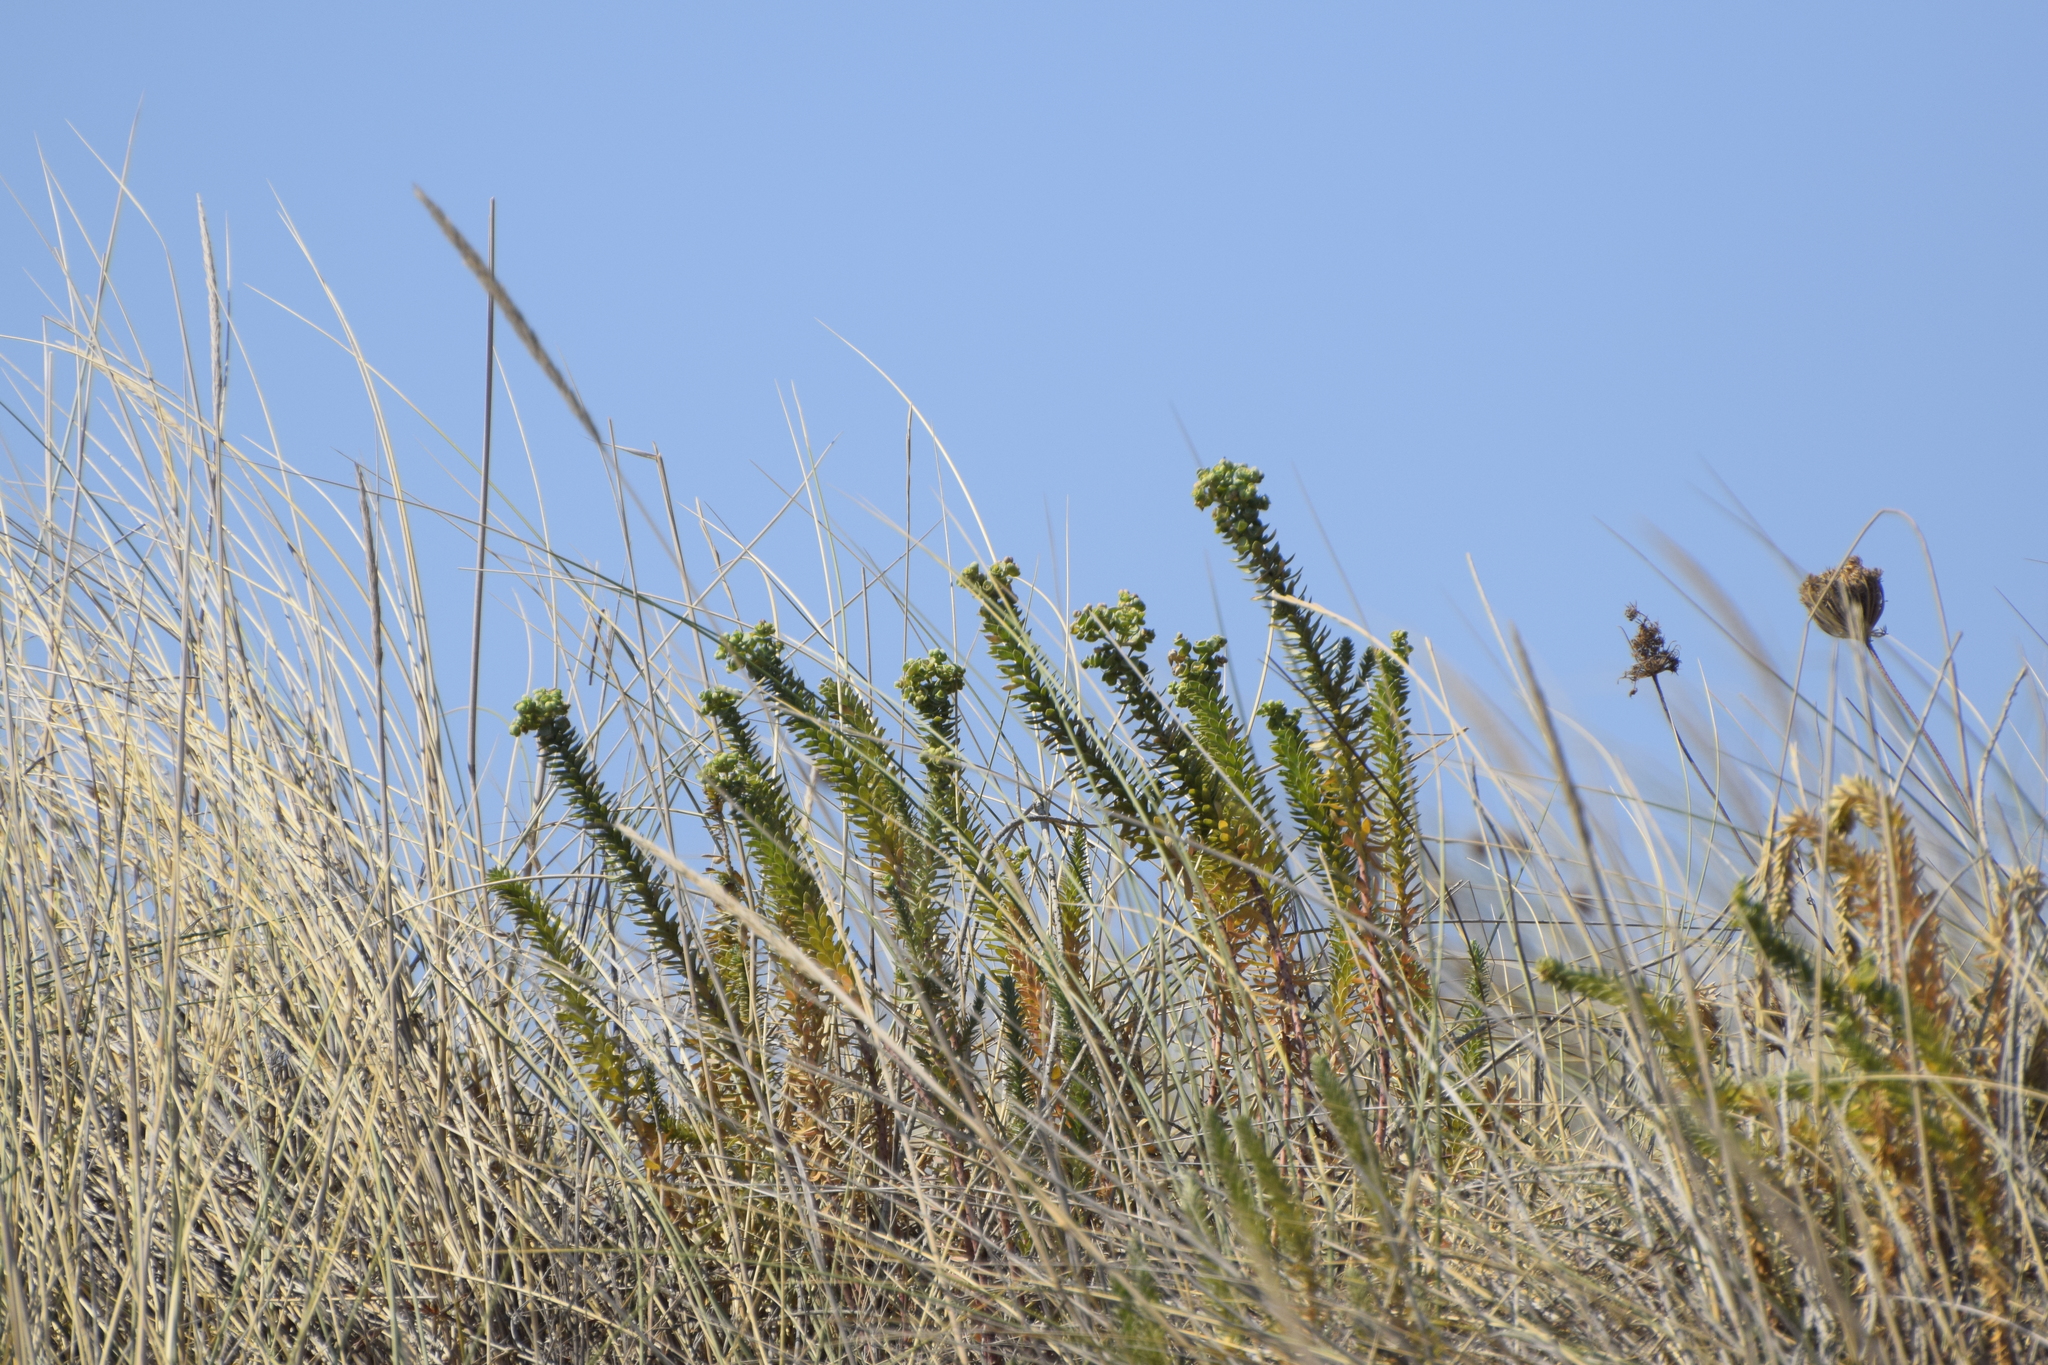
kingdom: Plantae
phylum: Tracheophyta
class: Magnoliopsida
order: Malpighiales
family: Euphorbiaceae
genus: Euphorbia
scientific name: Euphorbia paralias
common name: Sea spurge
